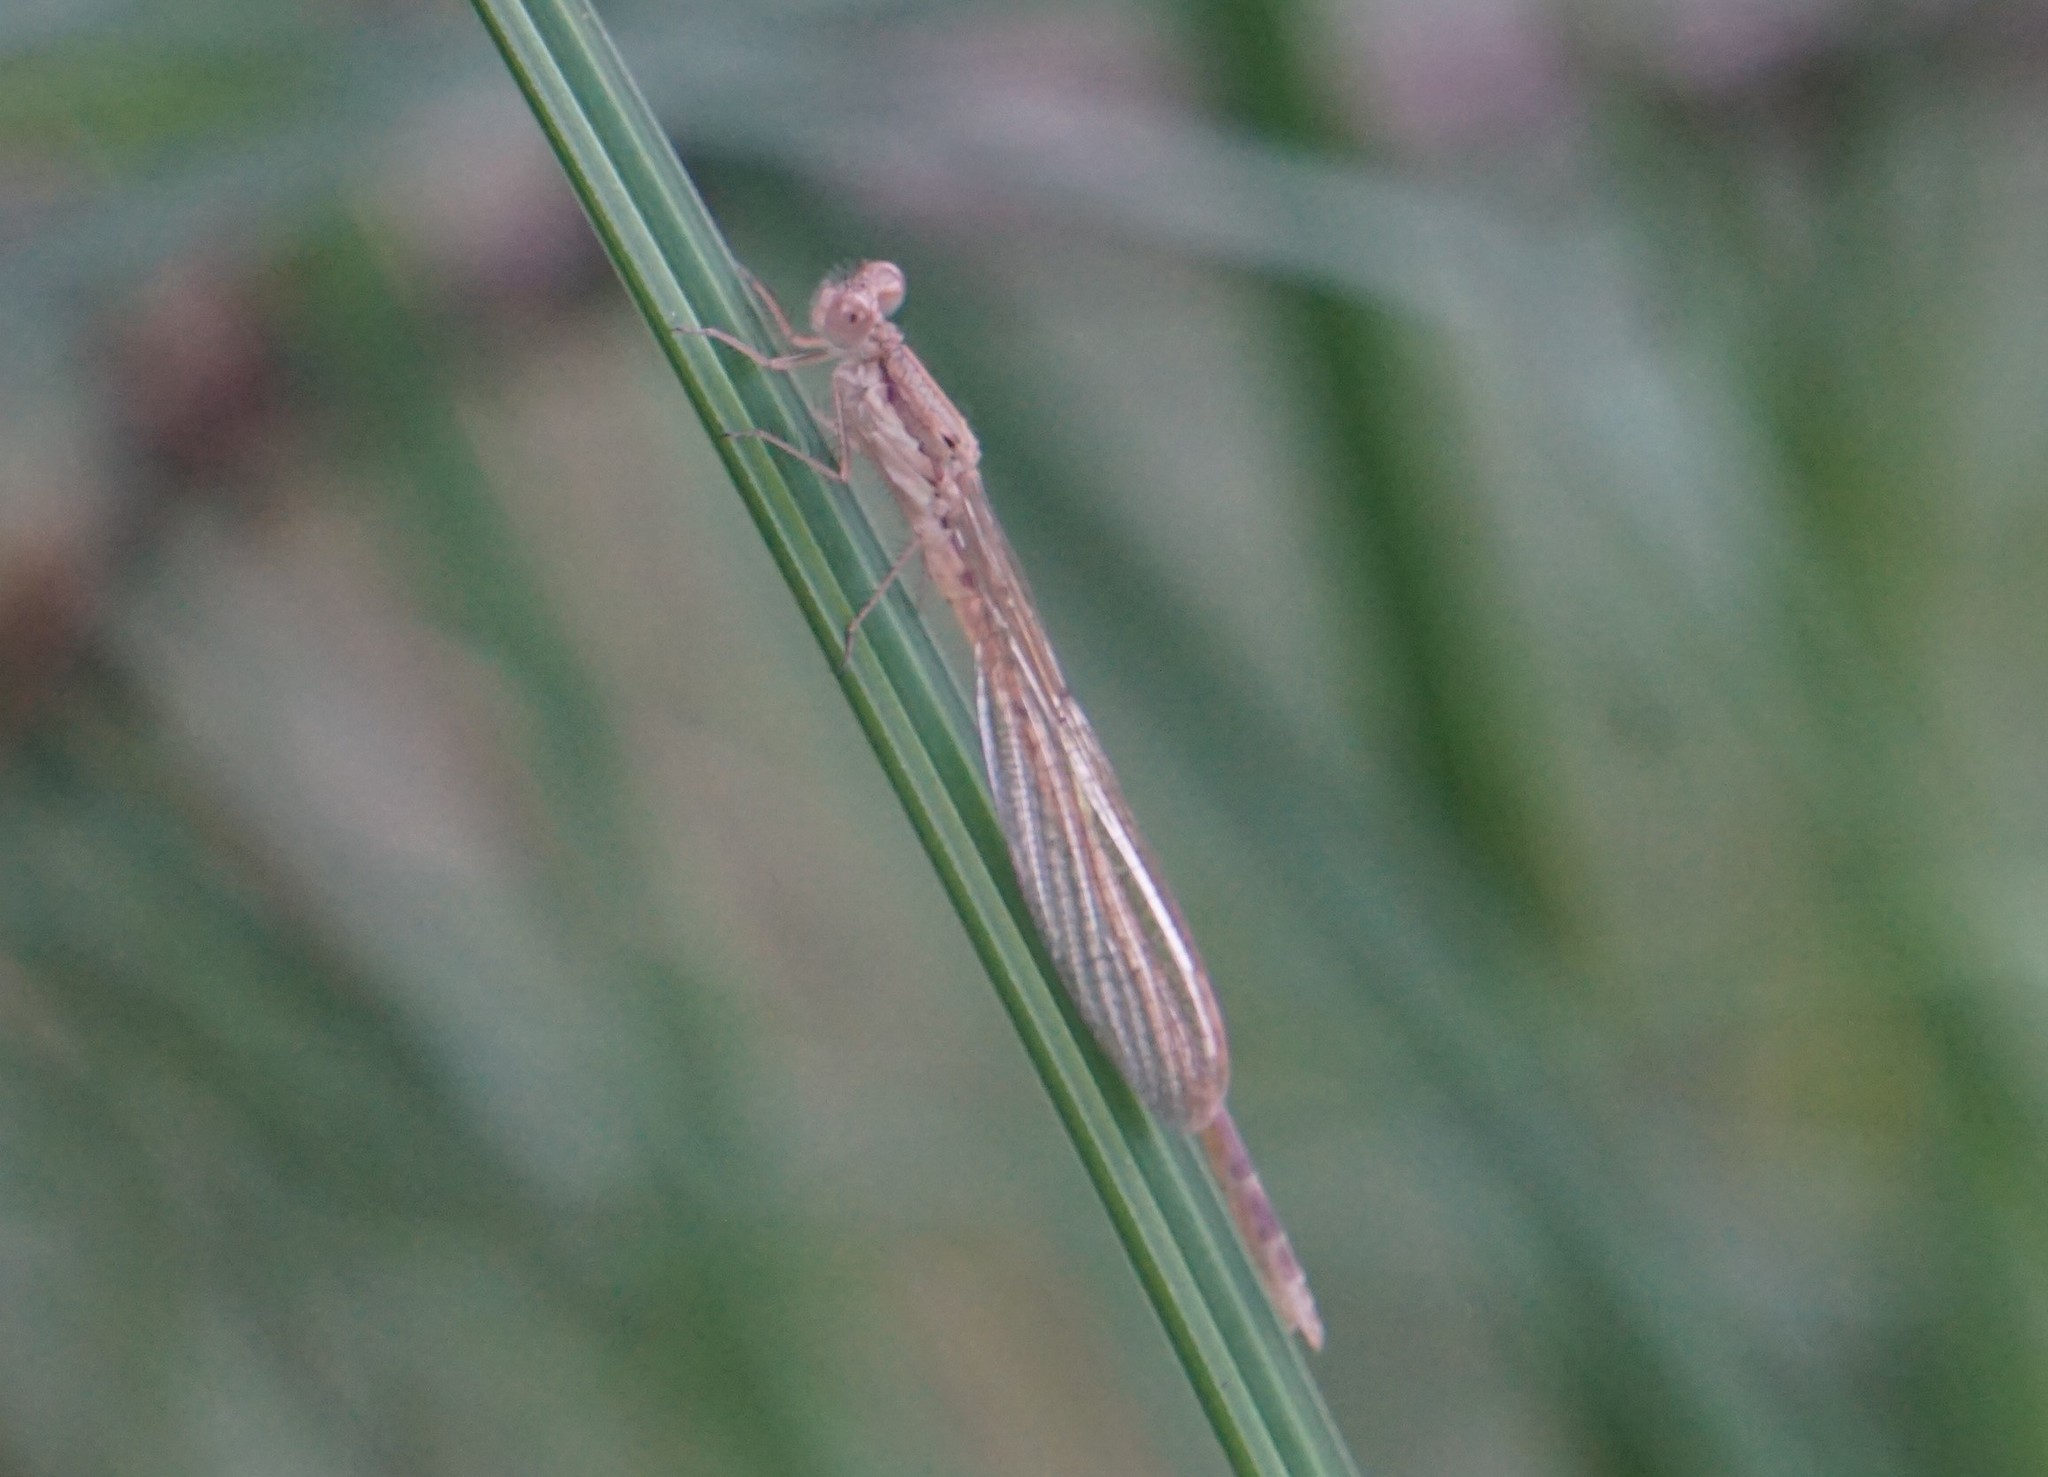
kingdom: Animalia
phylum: Arthropoda
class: Insecta
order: Odonata
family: Lestidae
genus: Sympecma
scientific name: Sympecma fusca
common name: Common winter damsel
